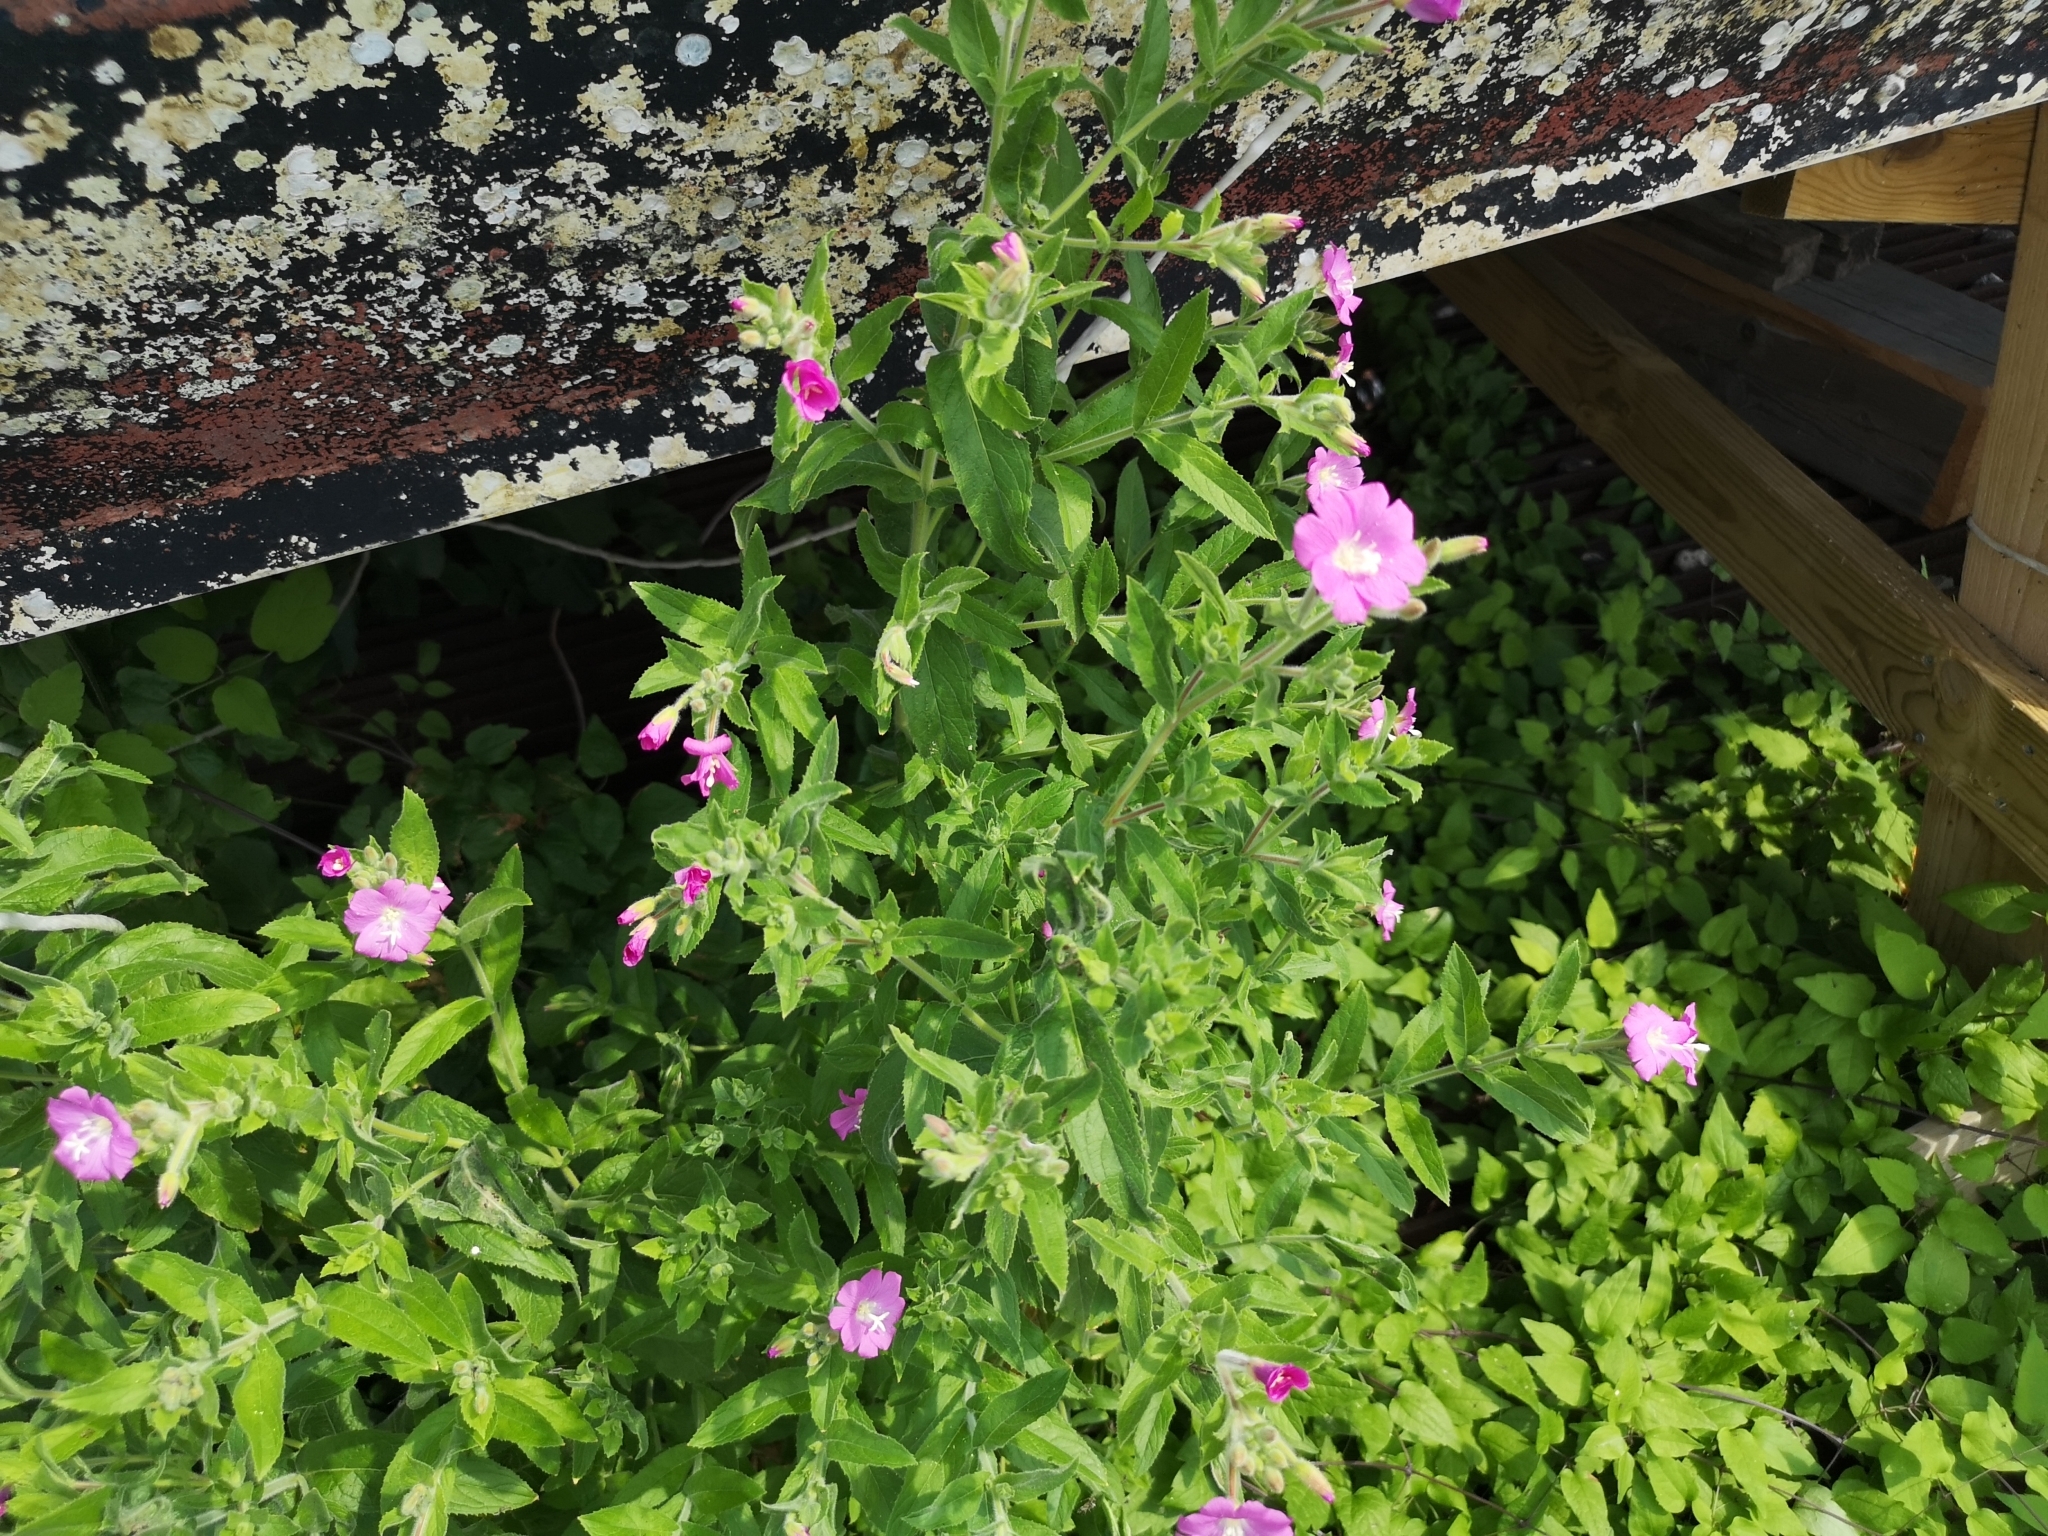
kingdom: Plantae
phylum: Tracheophyta
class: Magnoliopsida
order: Myrtales
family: Onagraceae
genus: Epilobium
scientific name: Epilobium hirsutum
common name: Great willowherb
